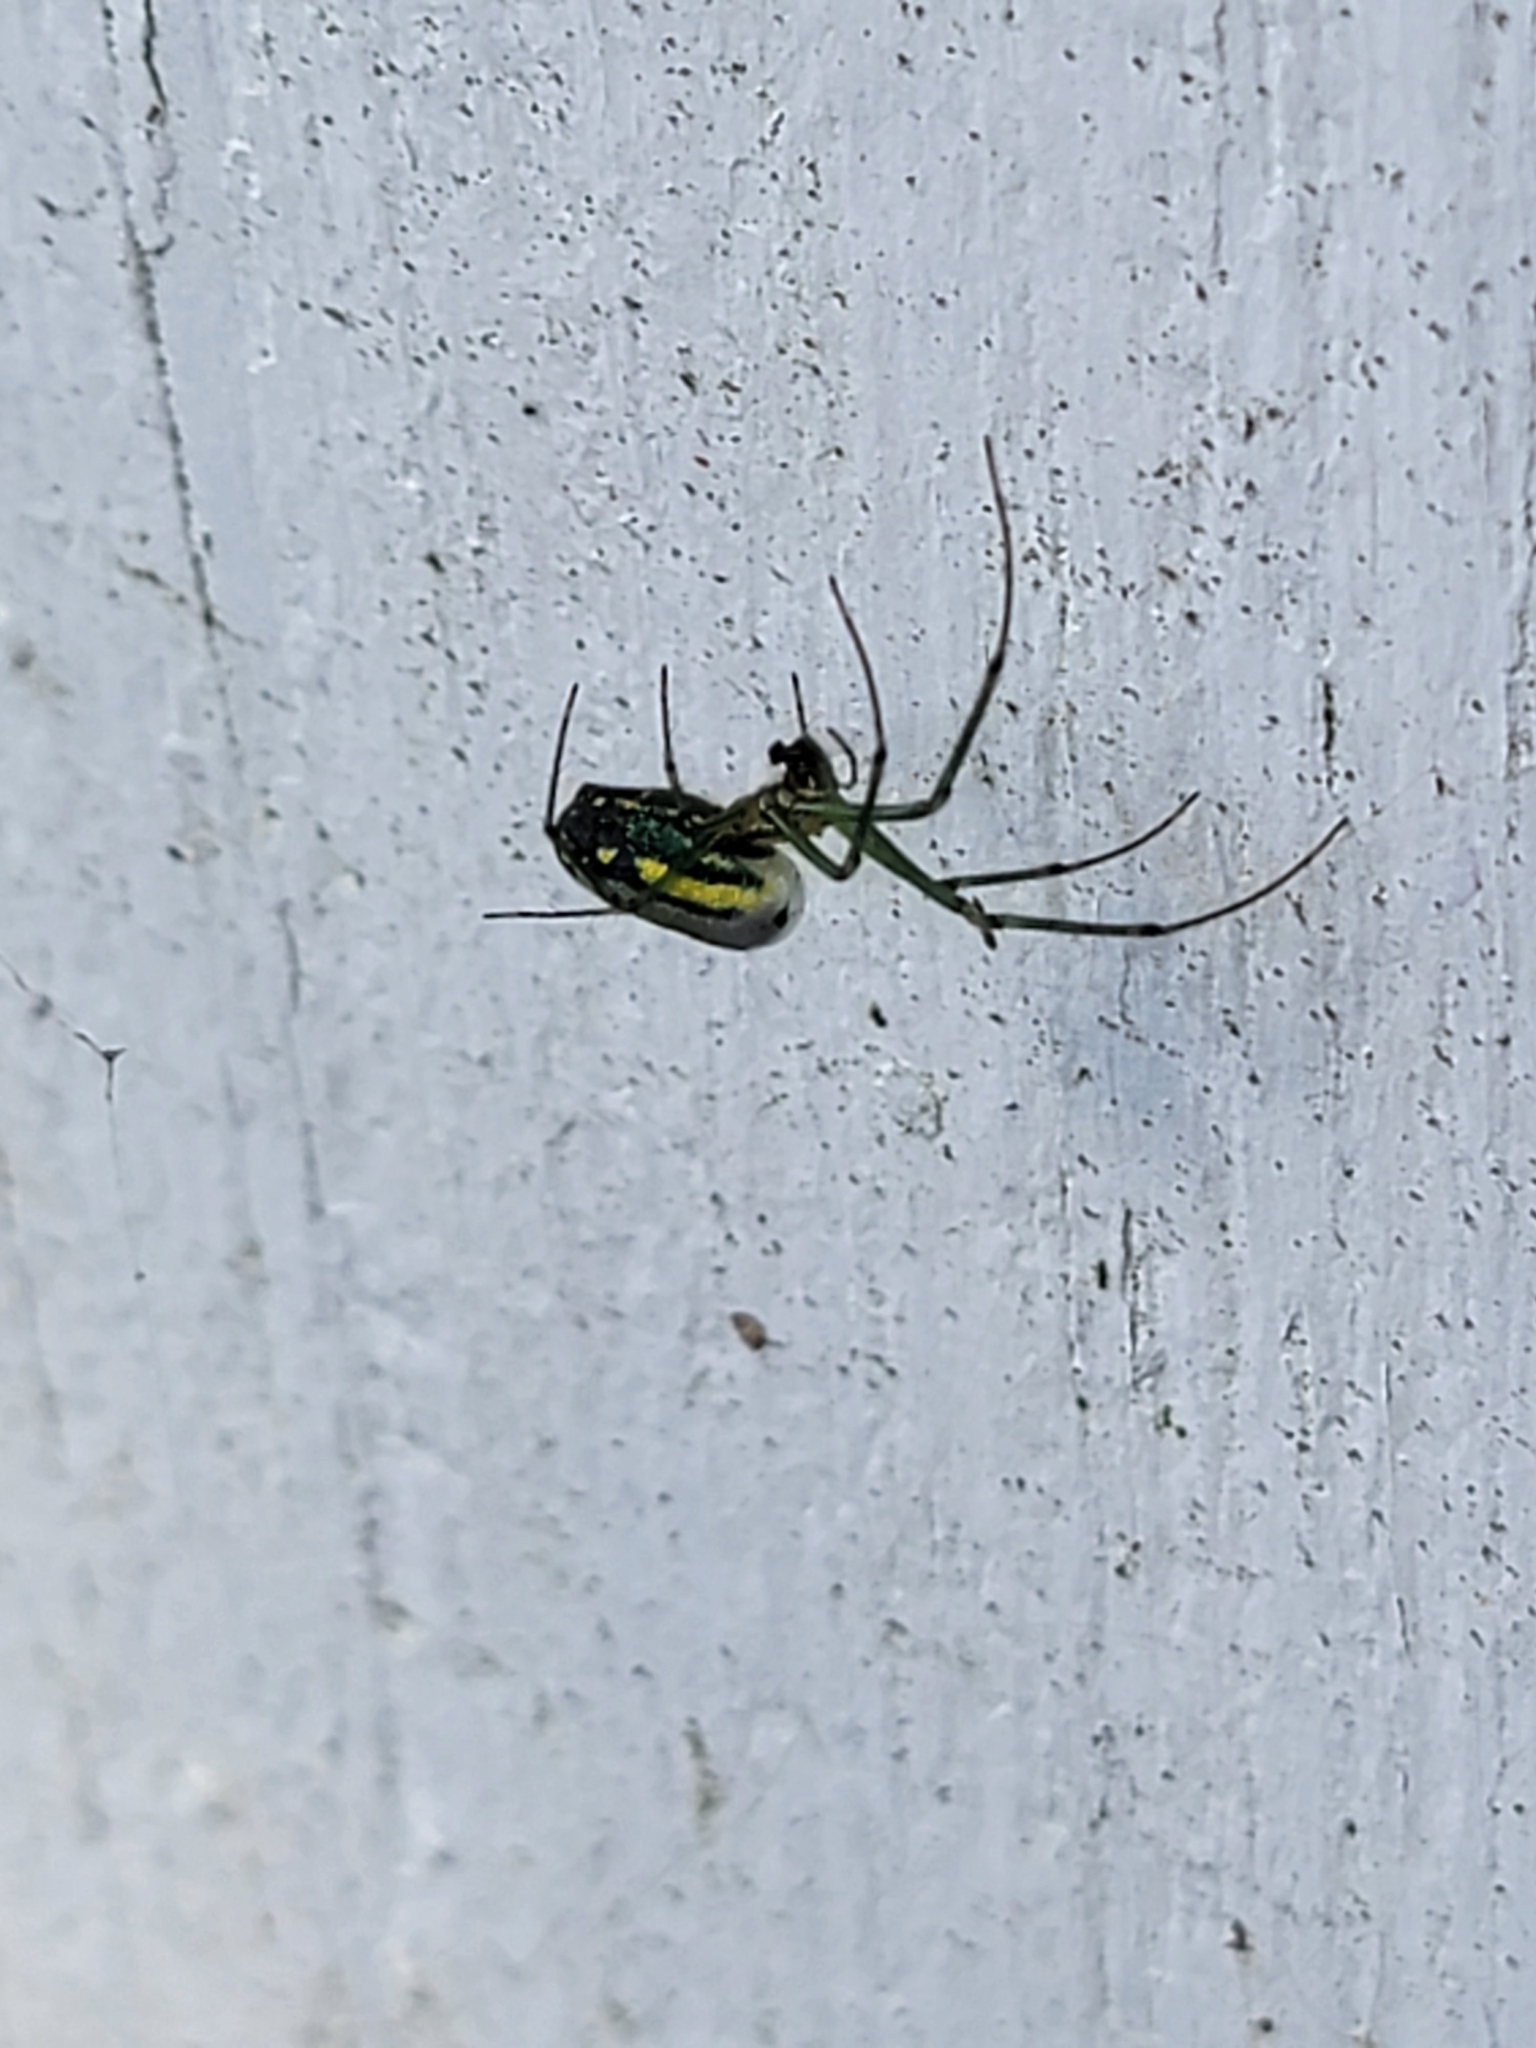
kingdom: Animalia
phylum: Arthropoda
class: Arachnida
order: Araneae
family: Tetragnathidae
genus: Leucauge
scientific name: Leucauge venusta
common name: Longjawed orb weavers
